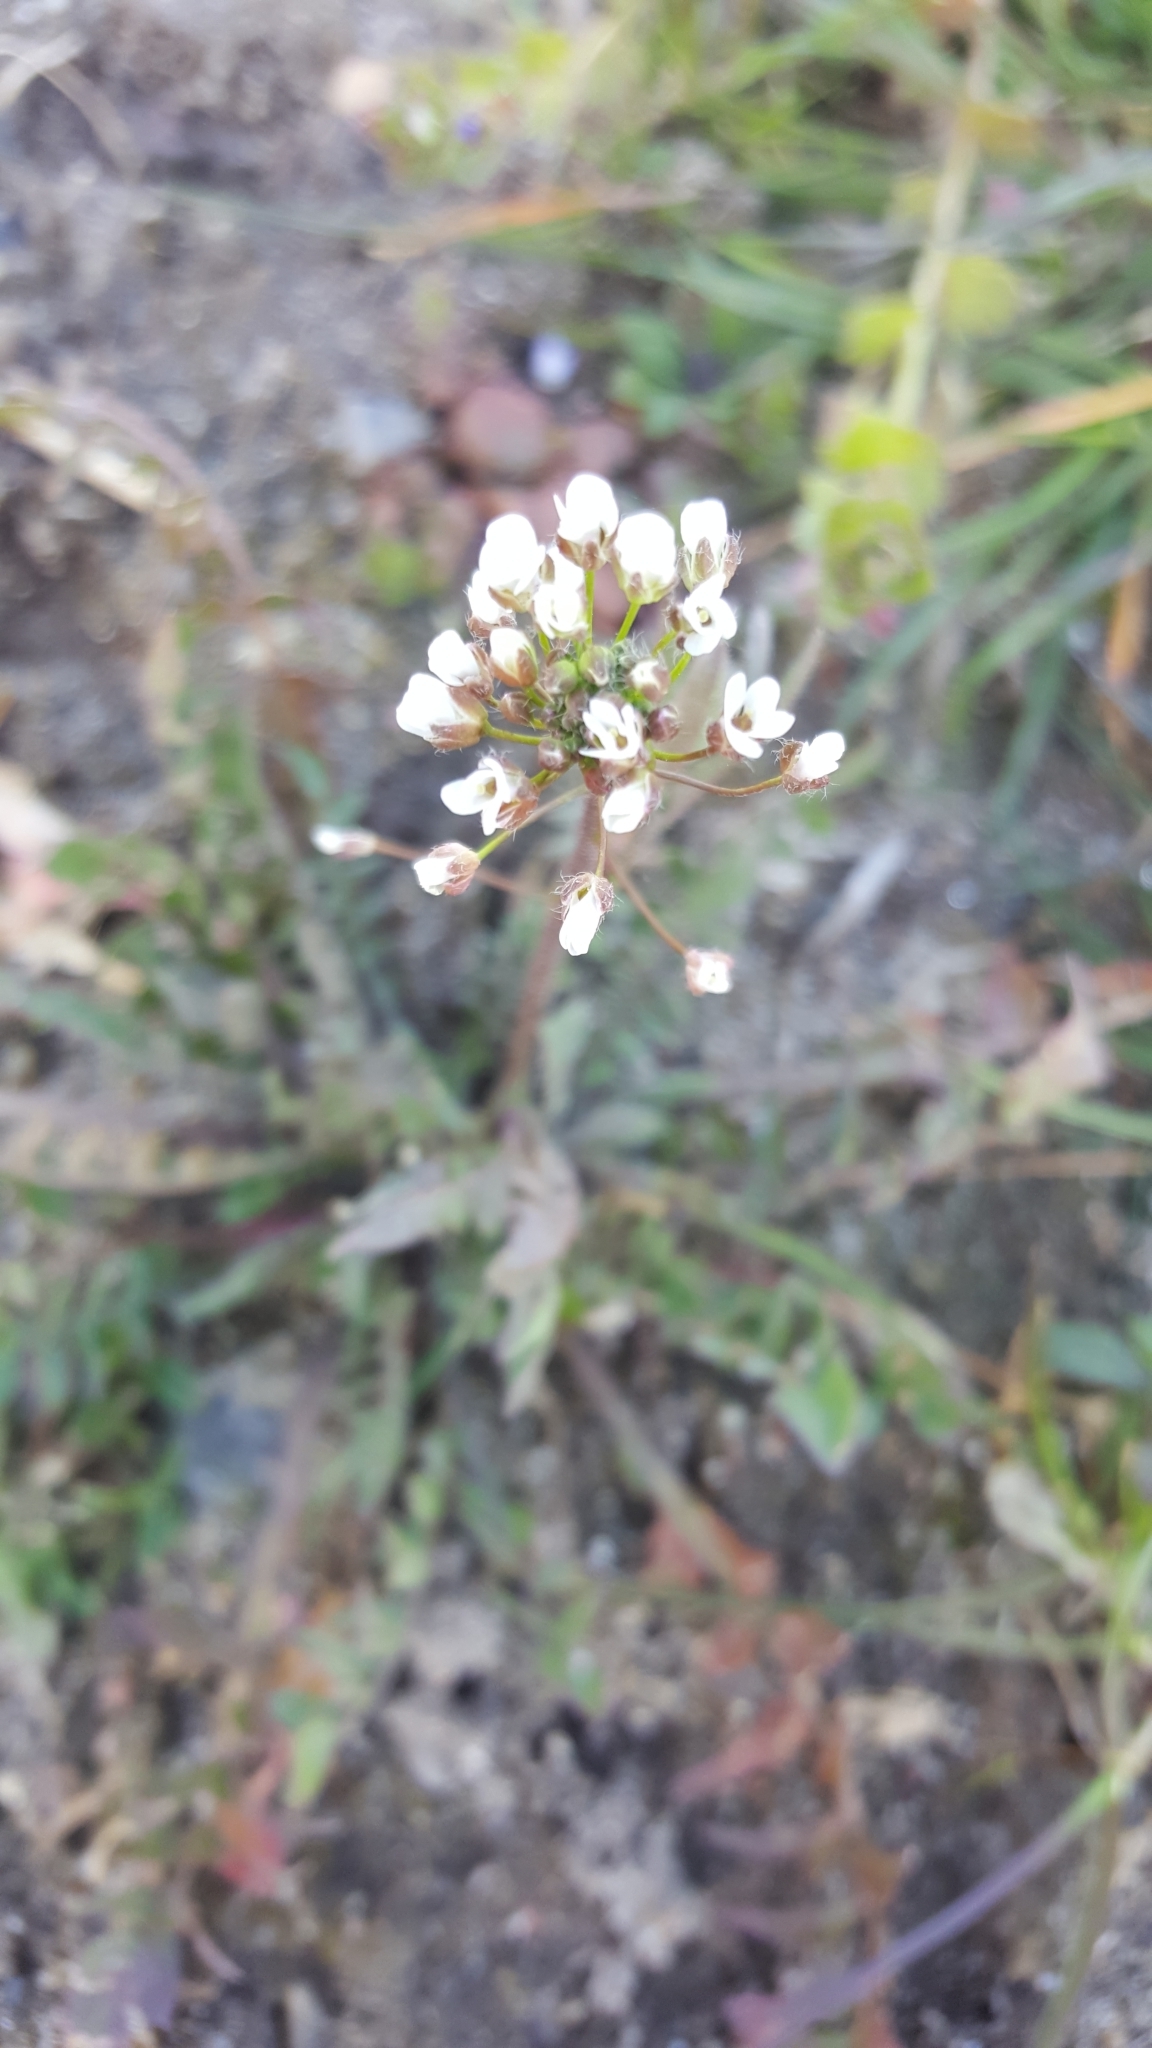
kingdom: Plantae
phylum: Tracheophyta
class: Magnoliopsida
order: Brassicales
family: Brassicaceae
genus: Capsella
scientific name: Capsella bursa-pastoris
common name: Shepherd's purse
